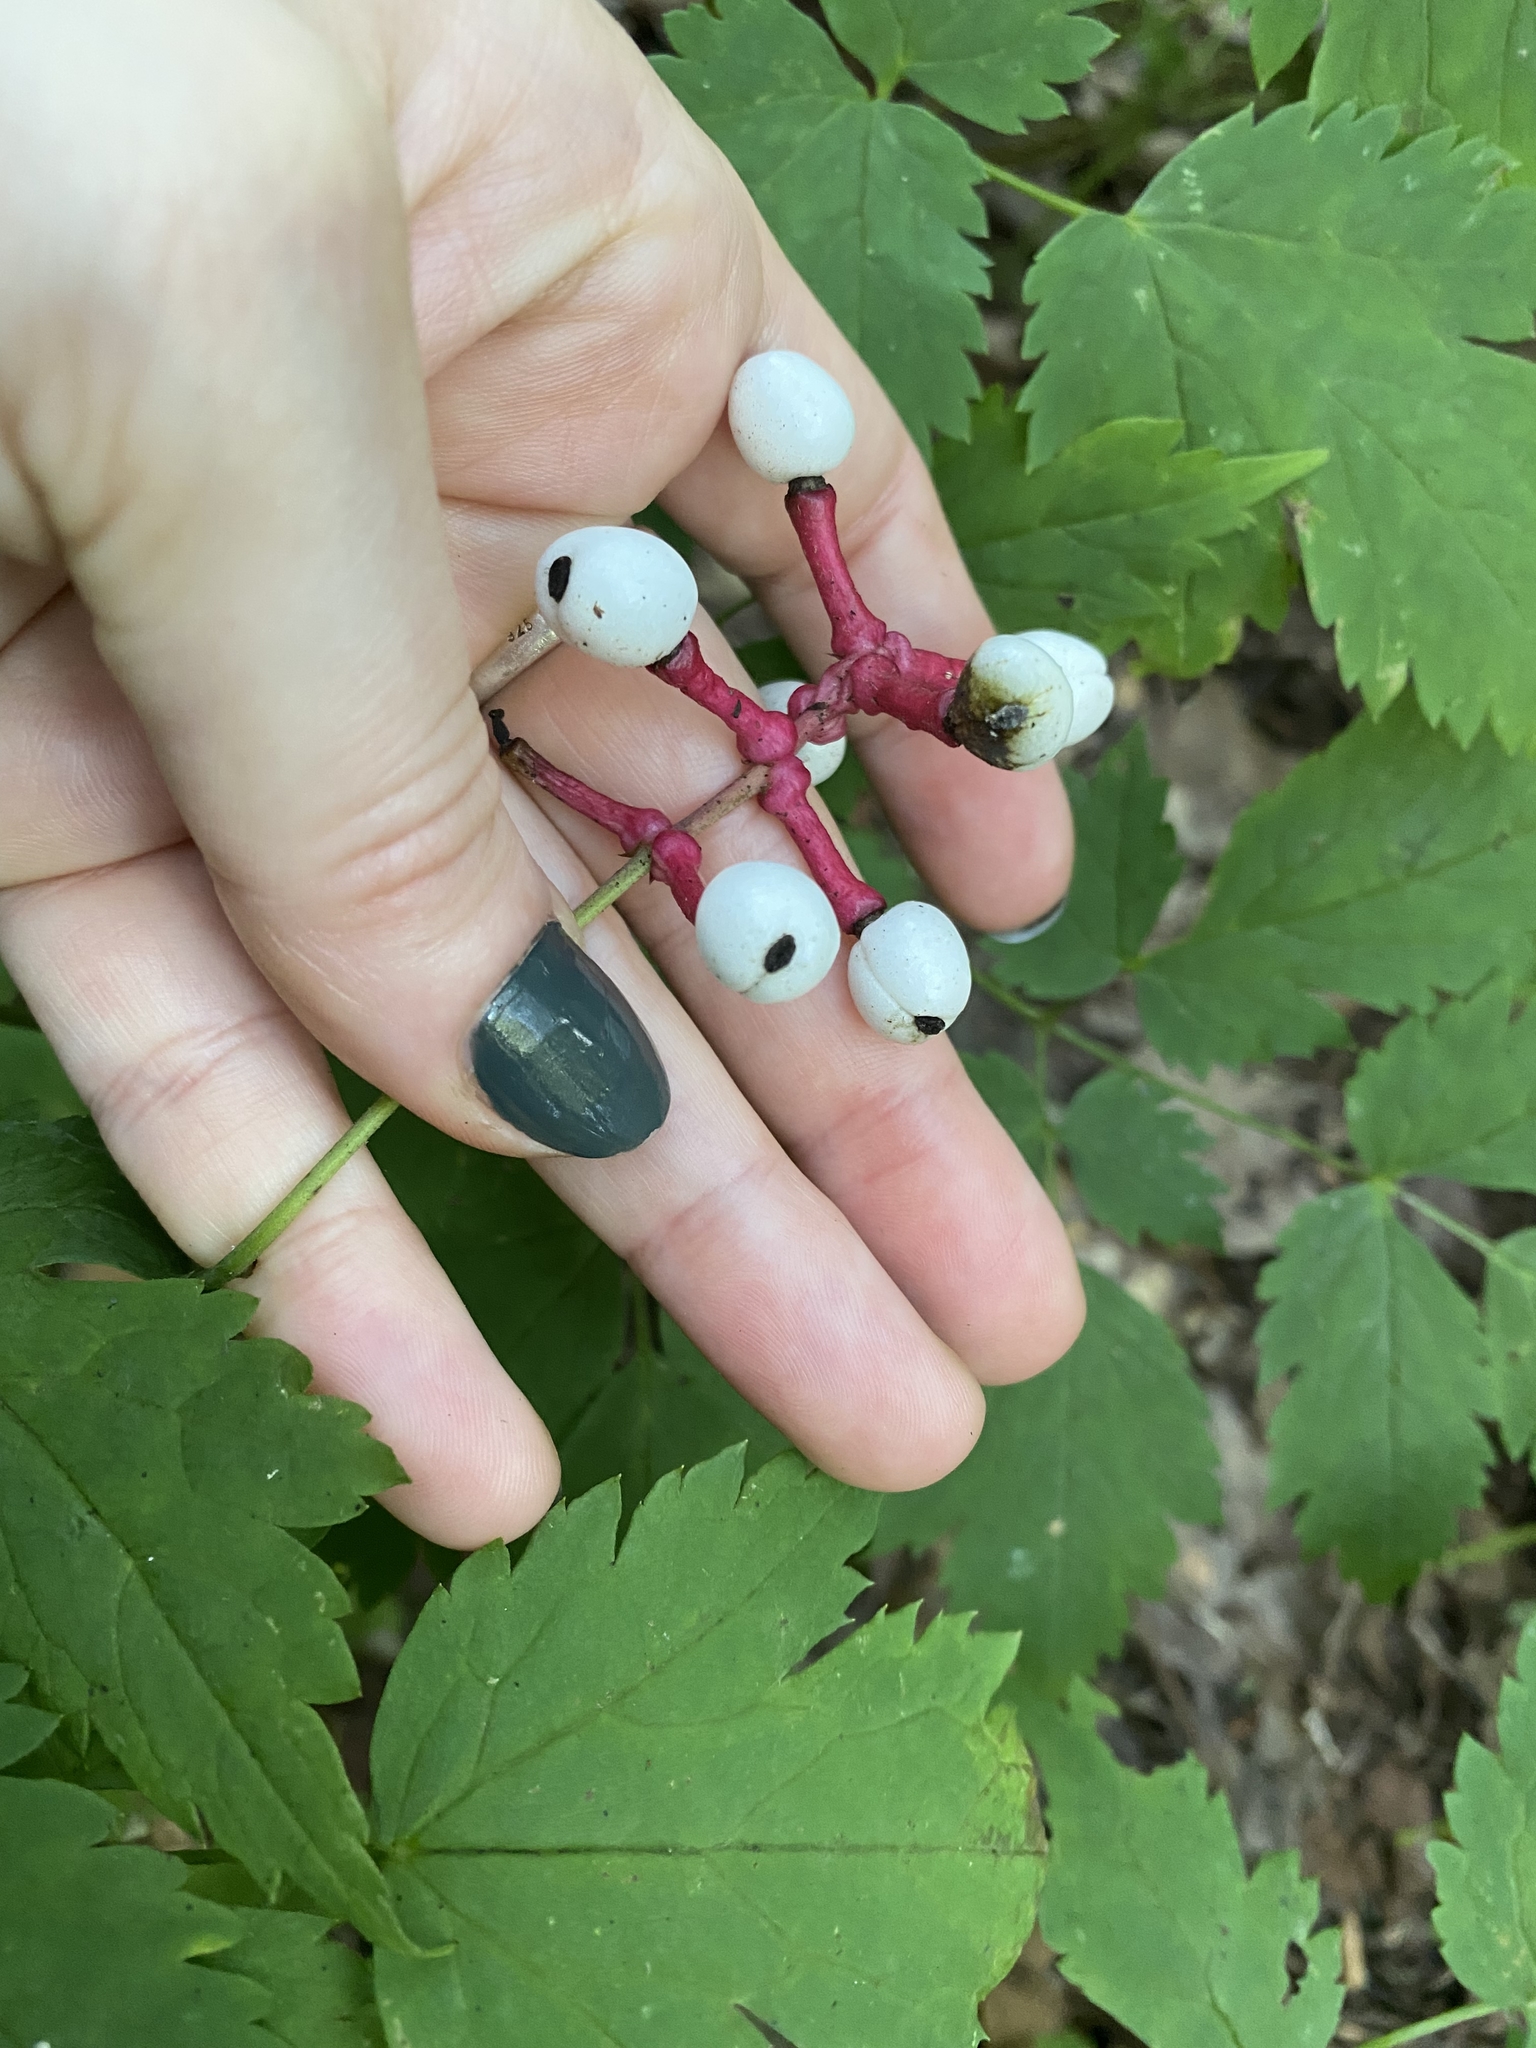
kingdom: Plantae
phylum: Tracheophyta
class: Magnoliopsida
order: Ranunculales
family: Ranunculaceae
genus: Actaea
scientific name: Actaea pachypoda
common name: Doll's-eyes
